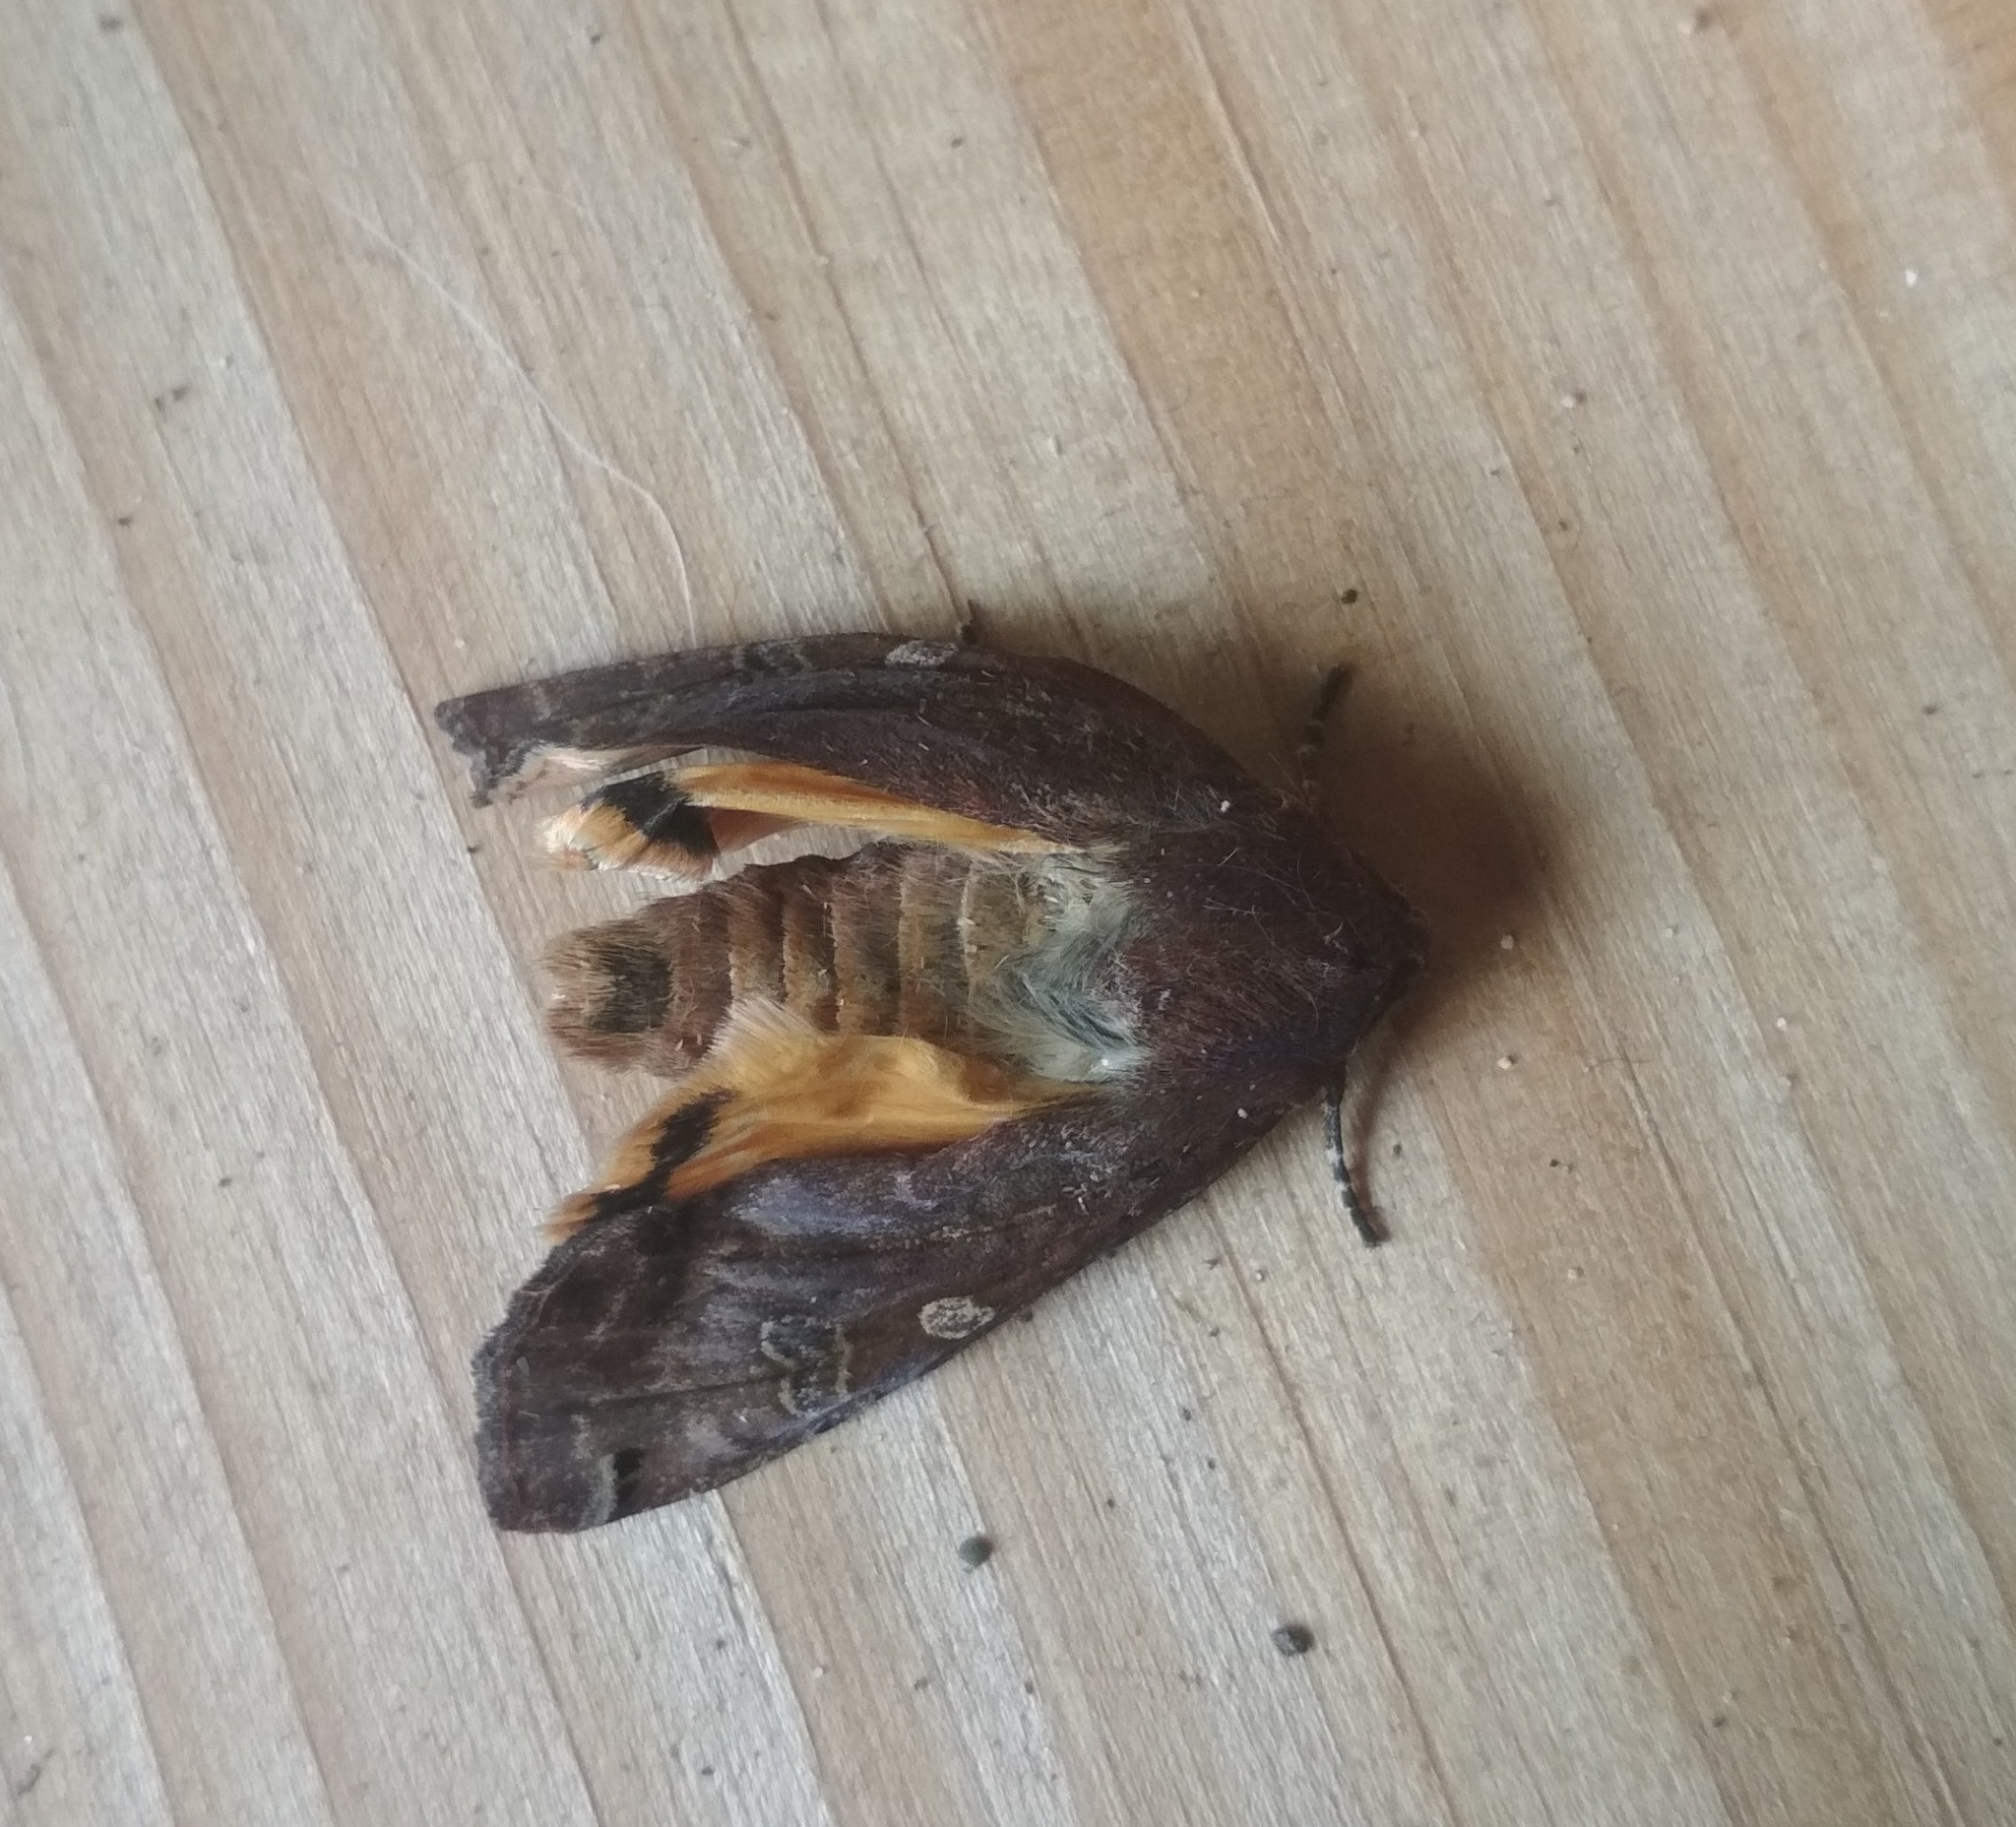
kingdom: Animalia
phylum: Arthropoda
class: Insecta
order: Lepidoptera
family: Noctuidae
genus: Noctua
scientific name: Noctua pronuba
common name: Large yellow underwing
